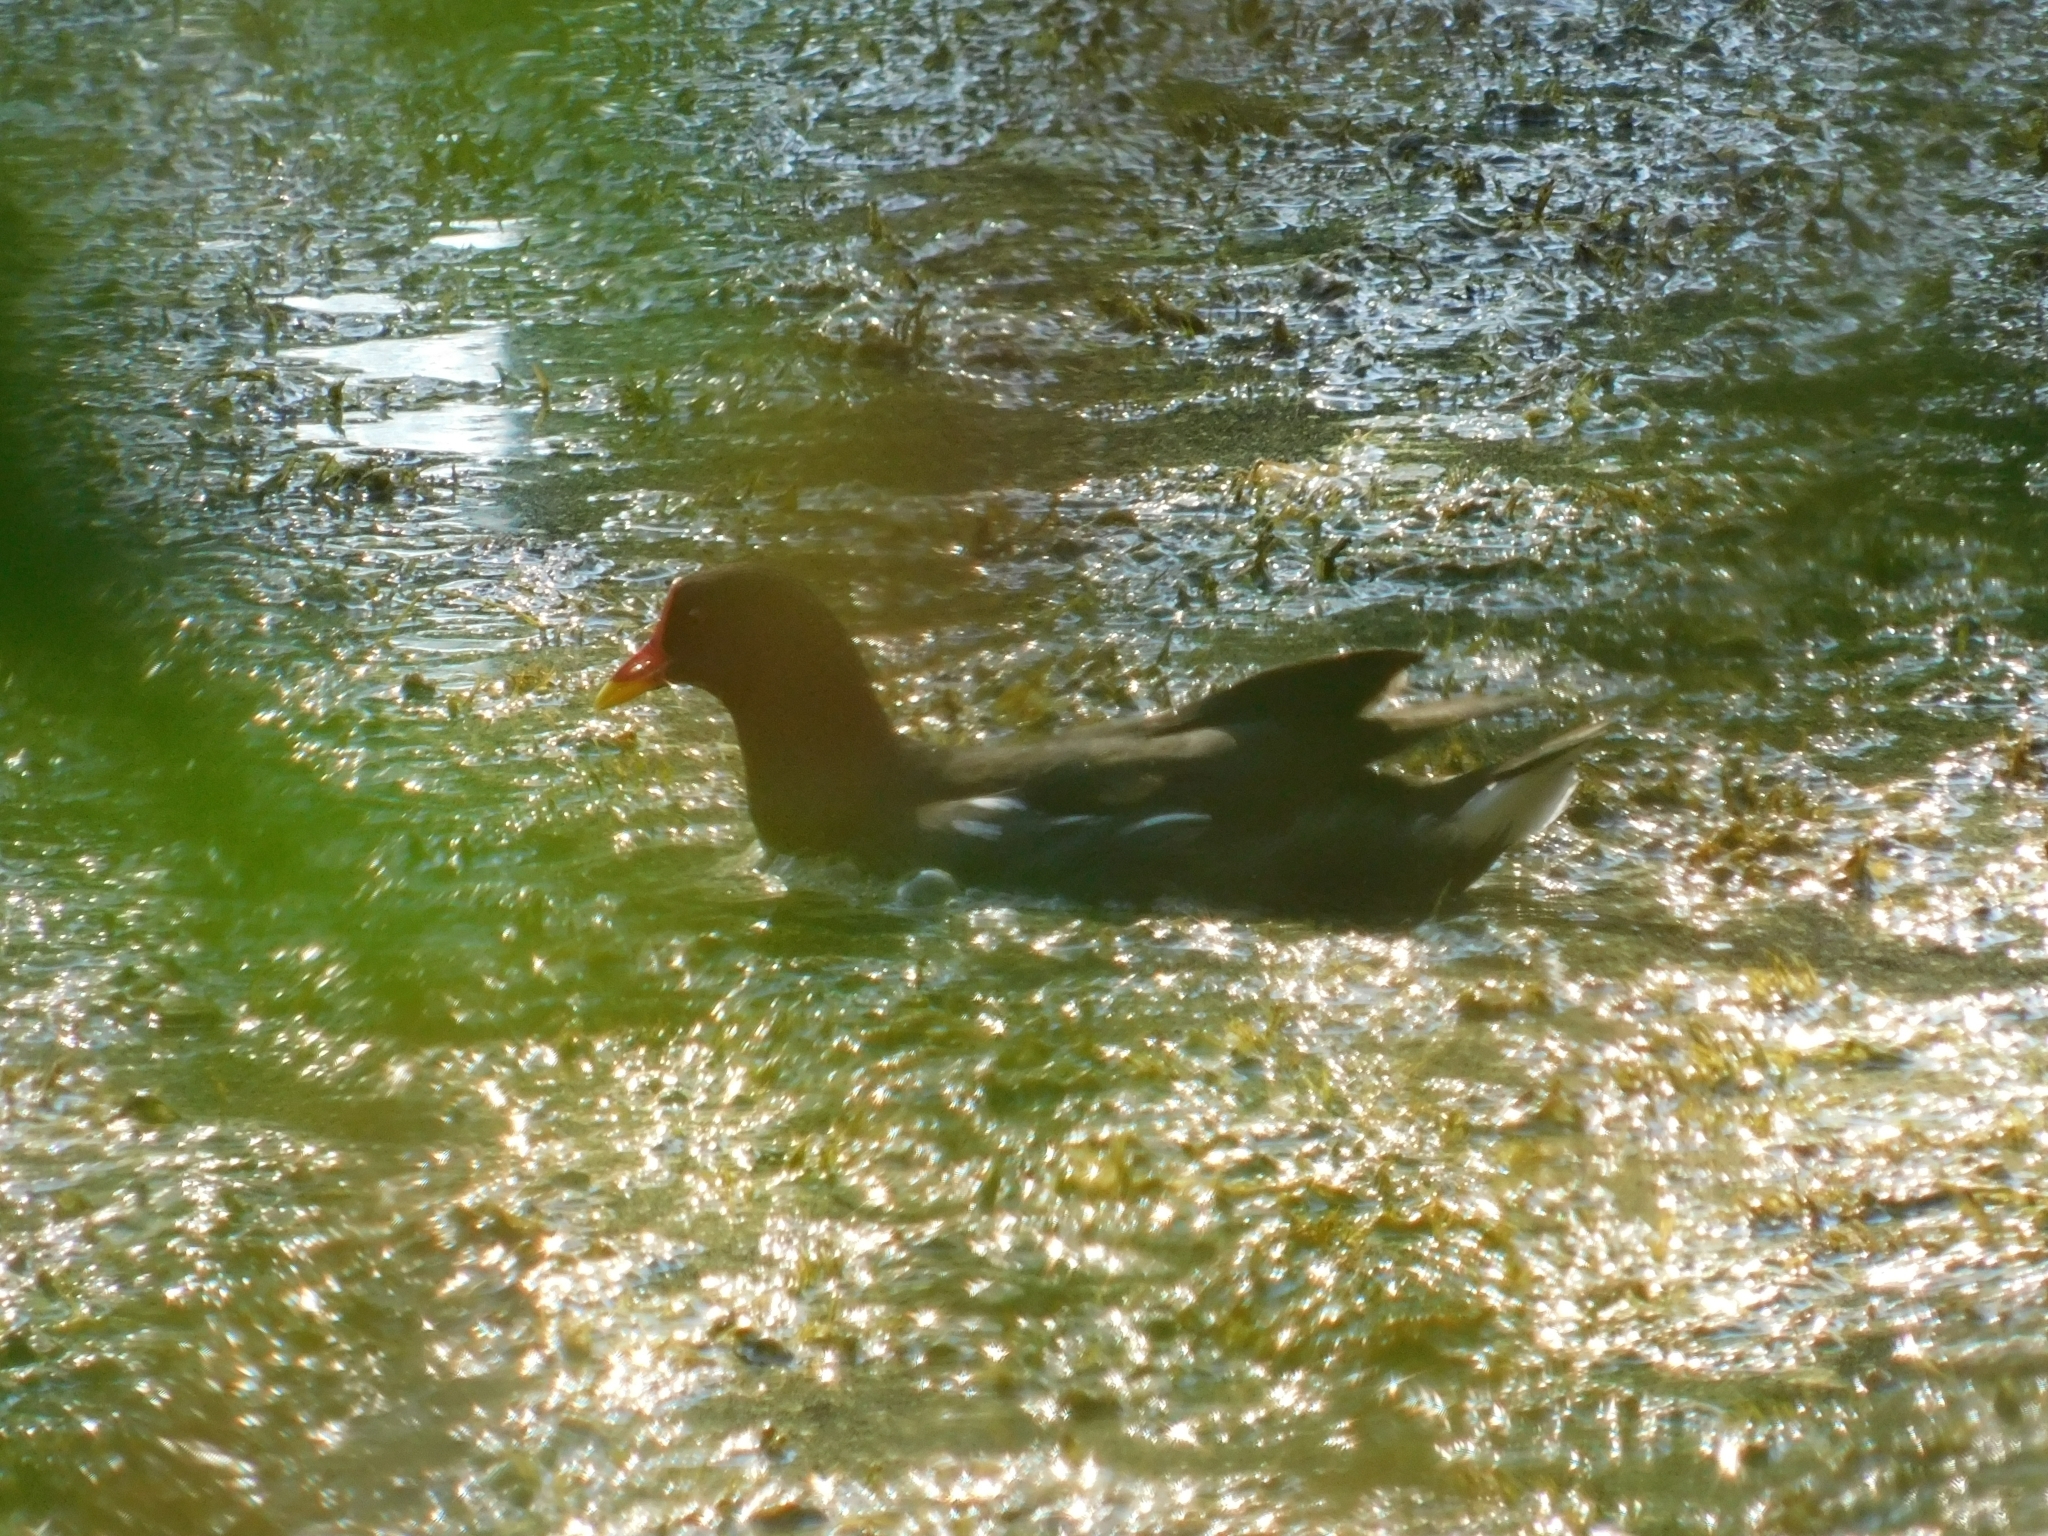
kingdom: Animalia
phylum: Chordata
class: Aves
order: Gruiformes
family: Rallidae
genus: Gallinula
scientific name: Gallinula chloropus
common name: Common moorhen
